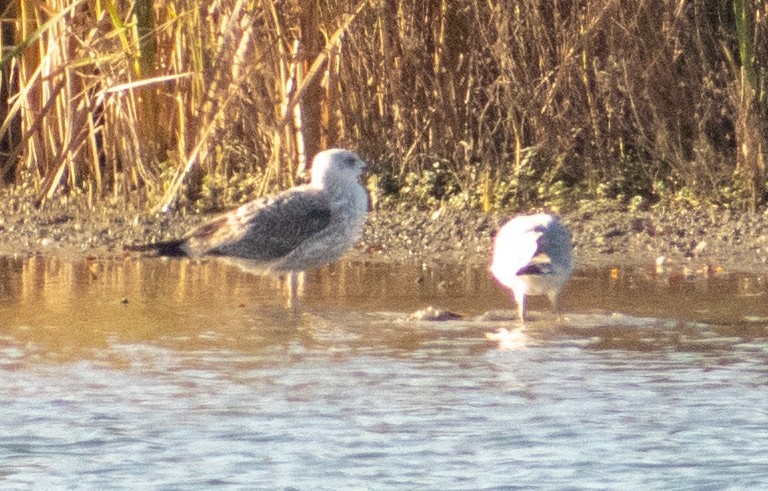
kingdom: Animalia
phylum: Chordata
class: Aves
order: Charadriiformes
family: Laridae
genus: Larus
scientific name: Larus michahellis
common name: Yellow-legged gull
